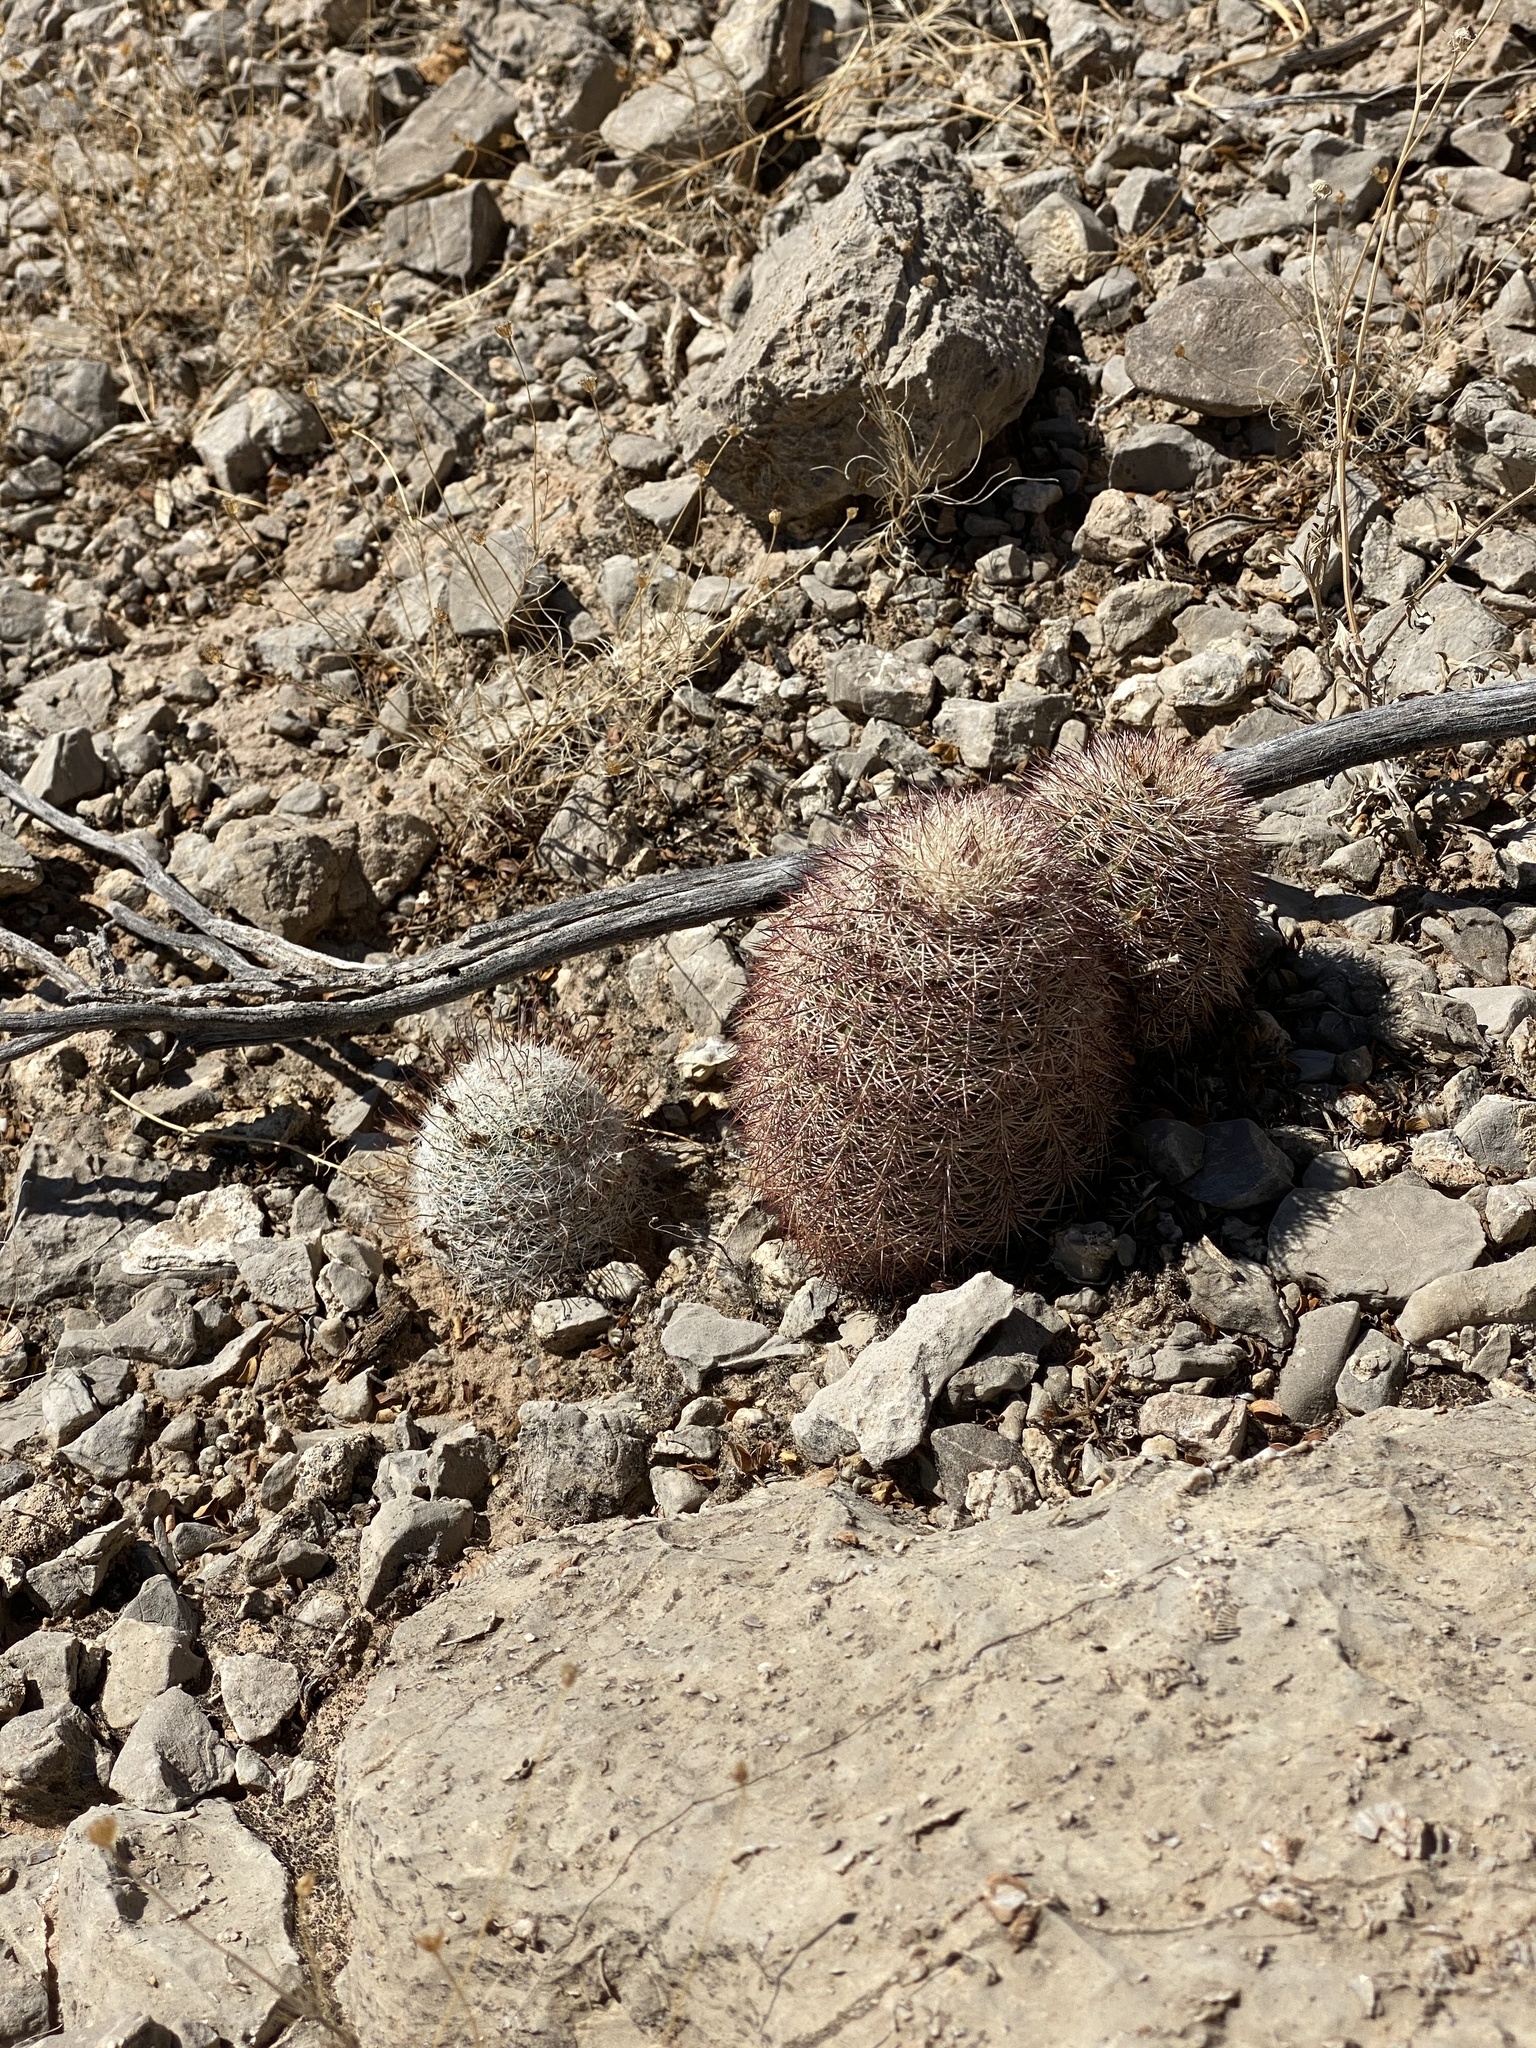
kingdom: Plantae
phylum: Tracheophyta
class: Magnoliopsida
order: Caryophyllales
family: Cactaceae
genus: Echinocereus
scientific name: Echinocereus dasyacanthus
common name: Spiny hedgehog cactus
